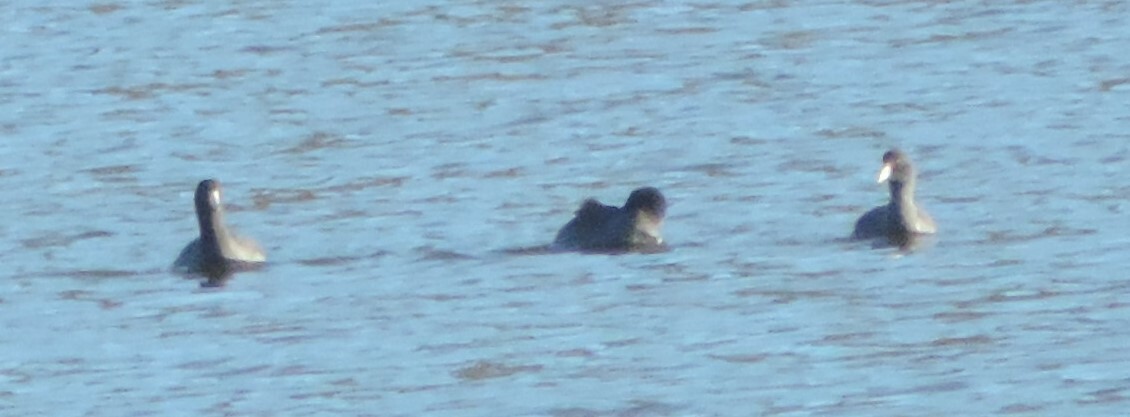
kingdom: Animalia
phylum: Chordata
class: Aves
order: Gruiformes
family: Rallidae
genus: Fulica
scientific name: Fulica americana
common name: American coot
